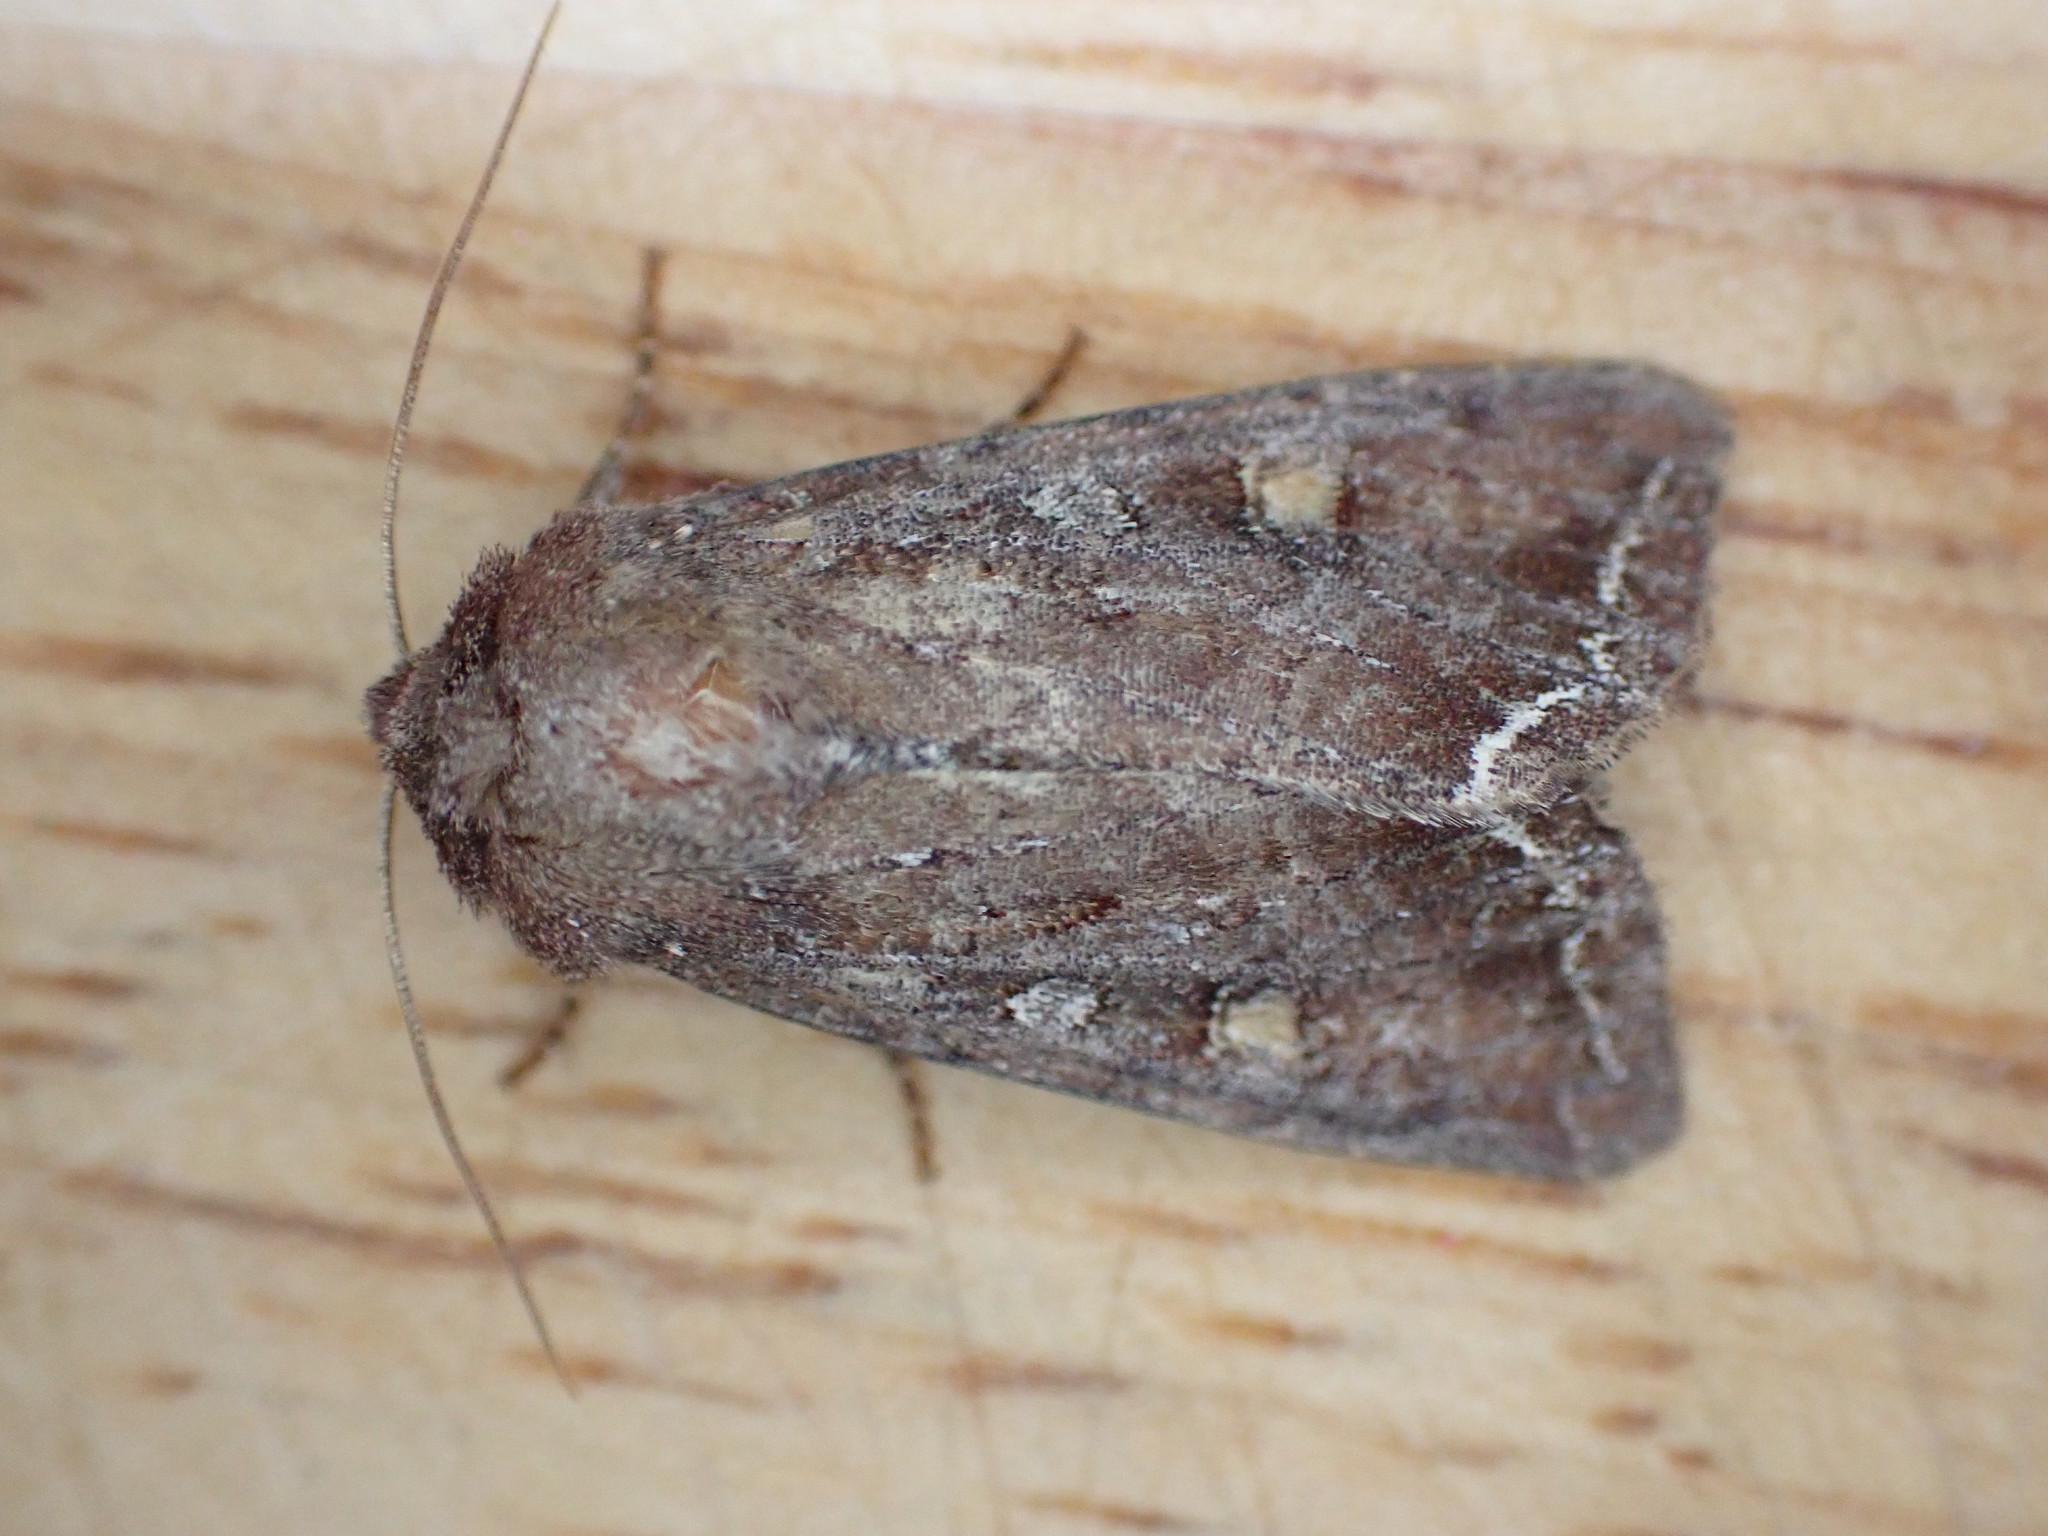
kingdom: Animalia
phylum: Arthropoda
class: Insecta
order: Lepidoptera
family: Noctuidae
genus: Lacanobia
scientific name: Lacanobia oleracea
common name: Bright-line brown-eye
